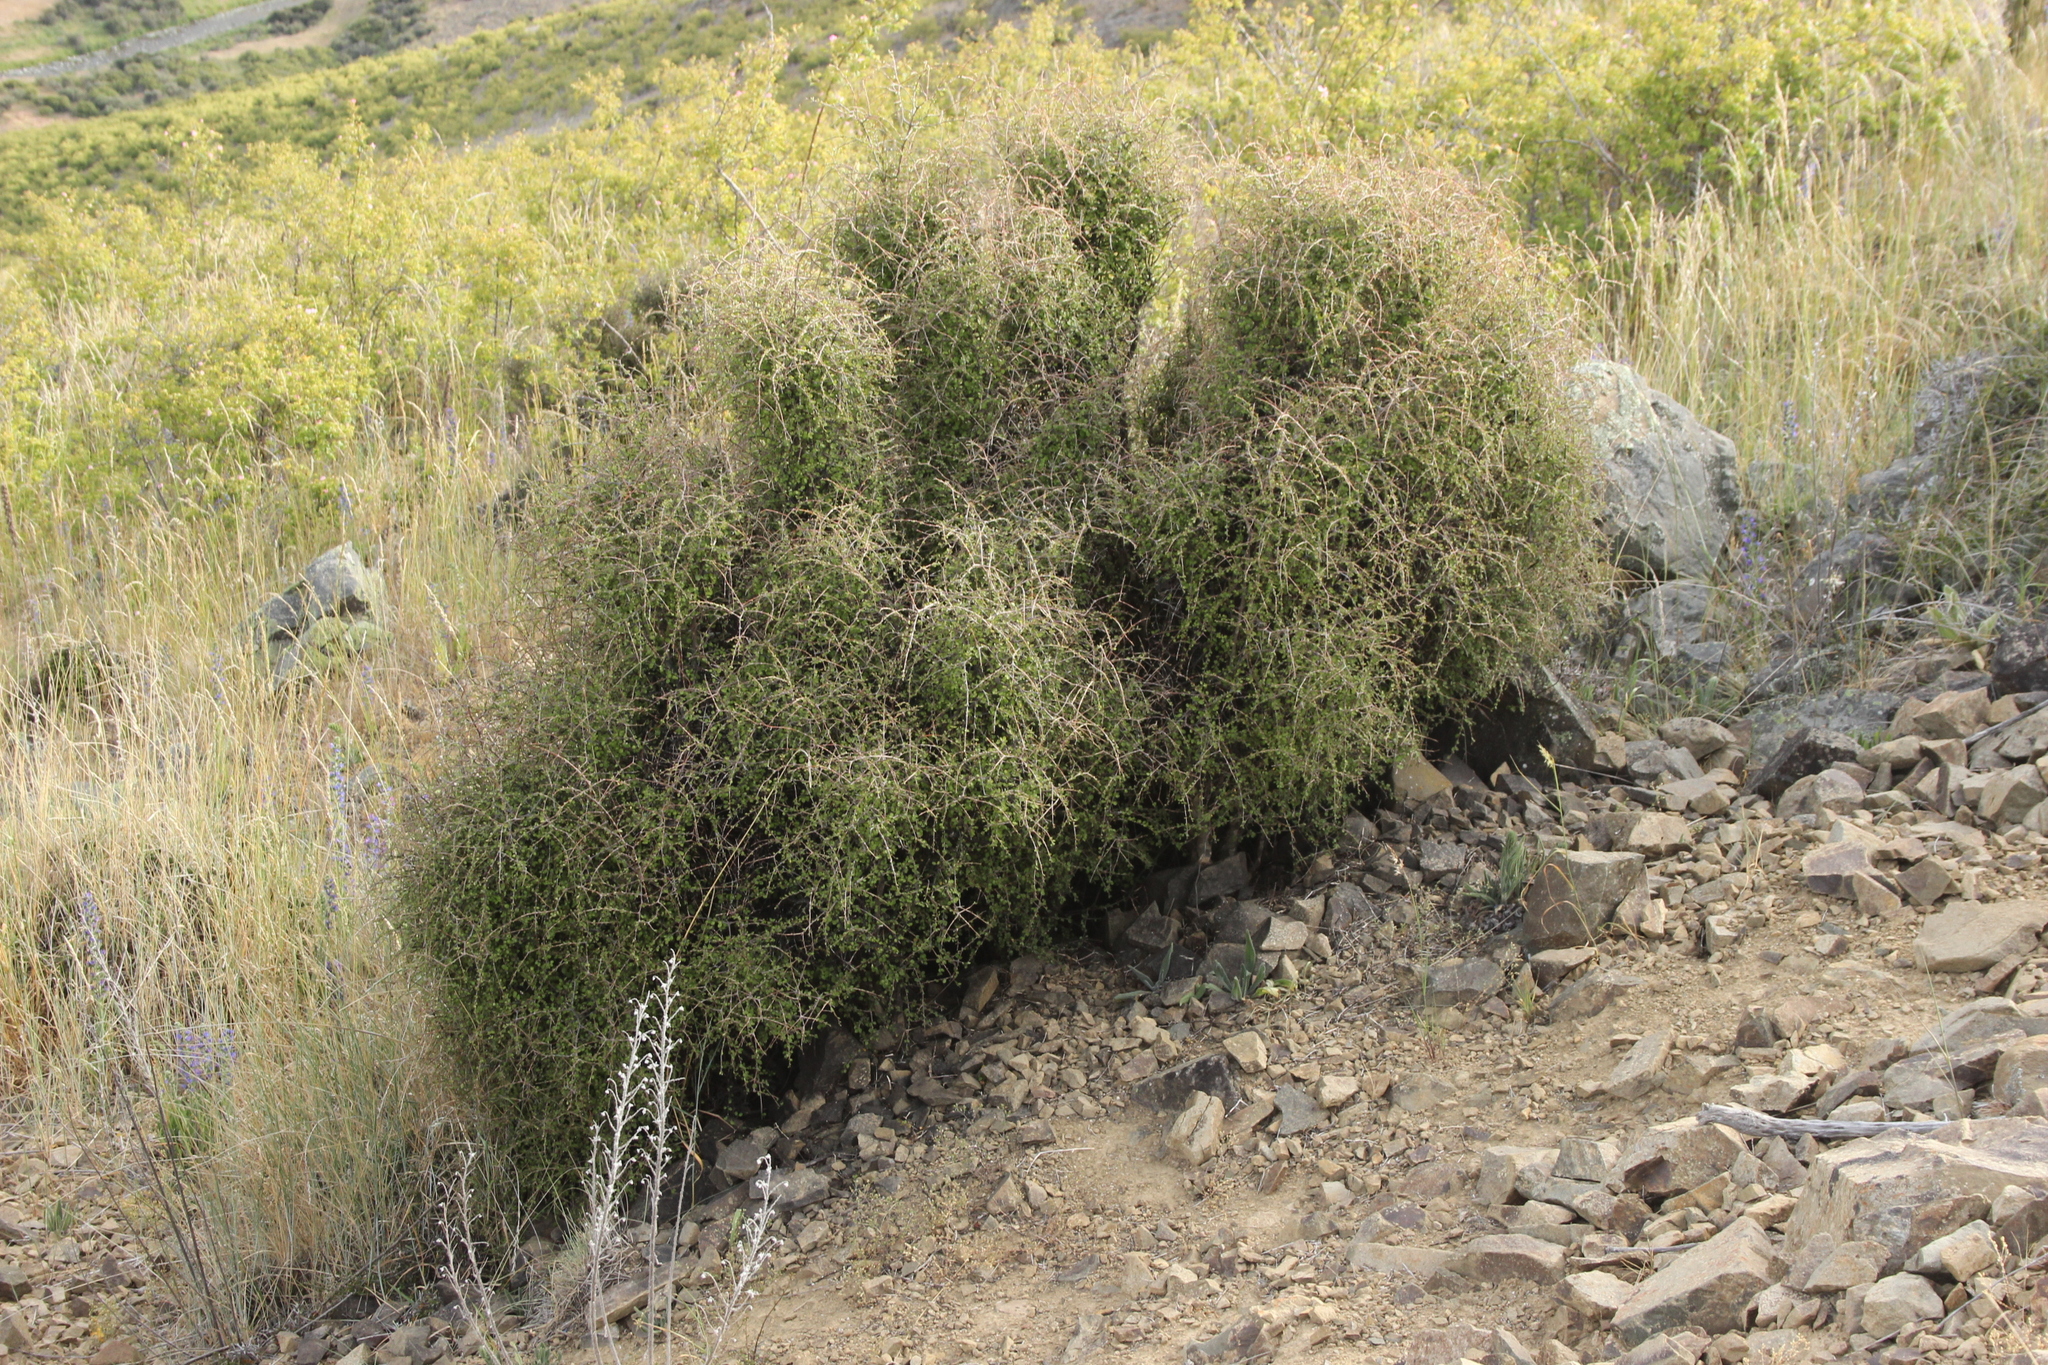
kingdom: Plantae
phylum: Tracheophyta
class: Magnoliopsida
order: Gentianales
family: Rubiaceae
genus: Coprosma
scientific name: Coprosma virescens
